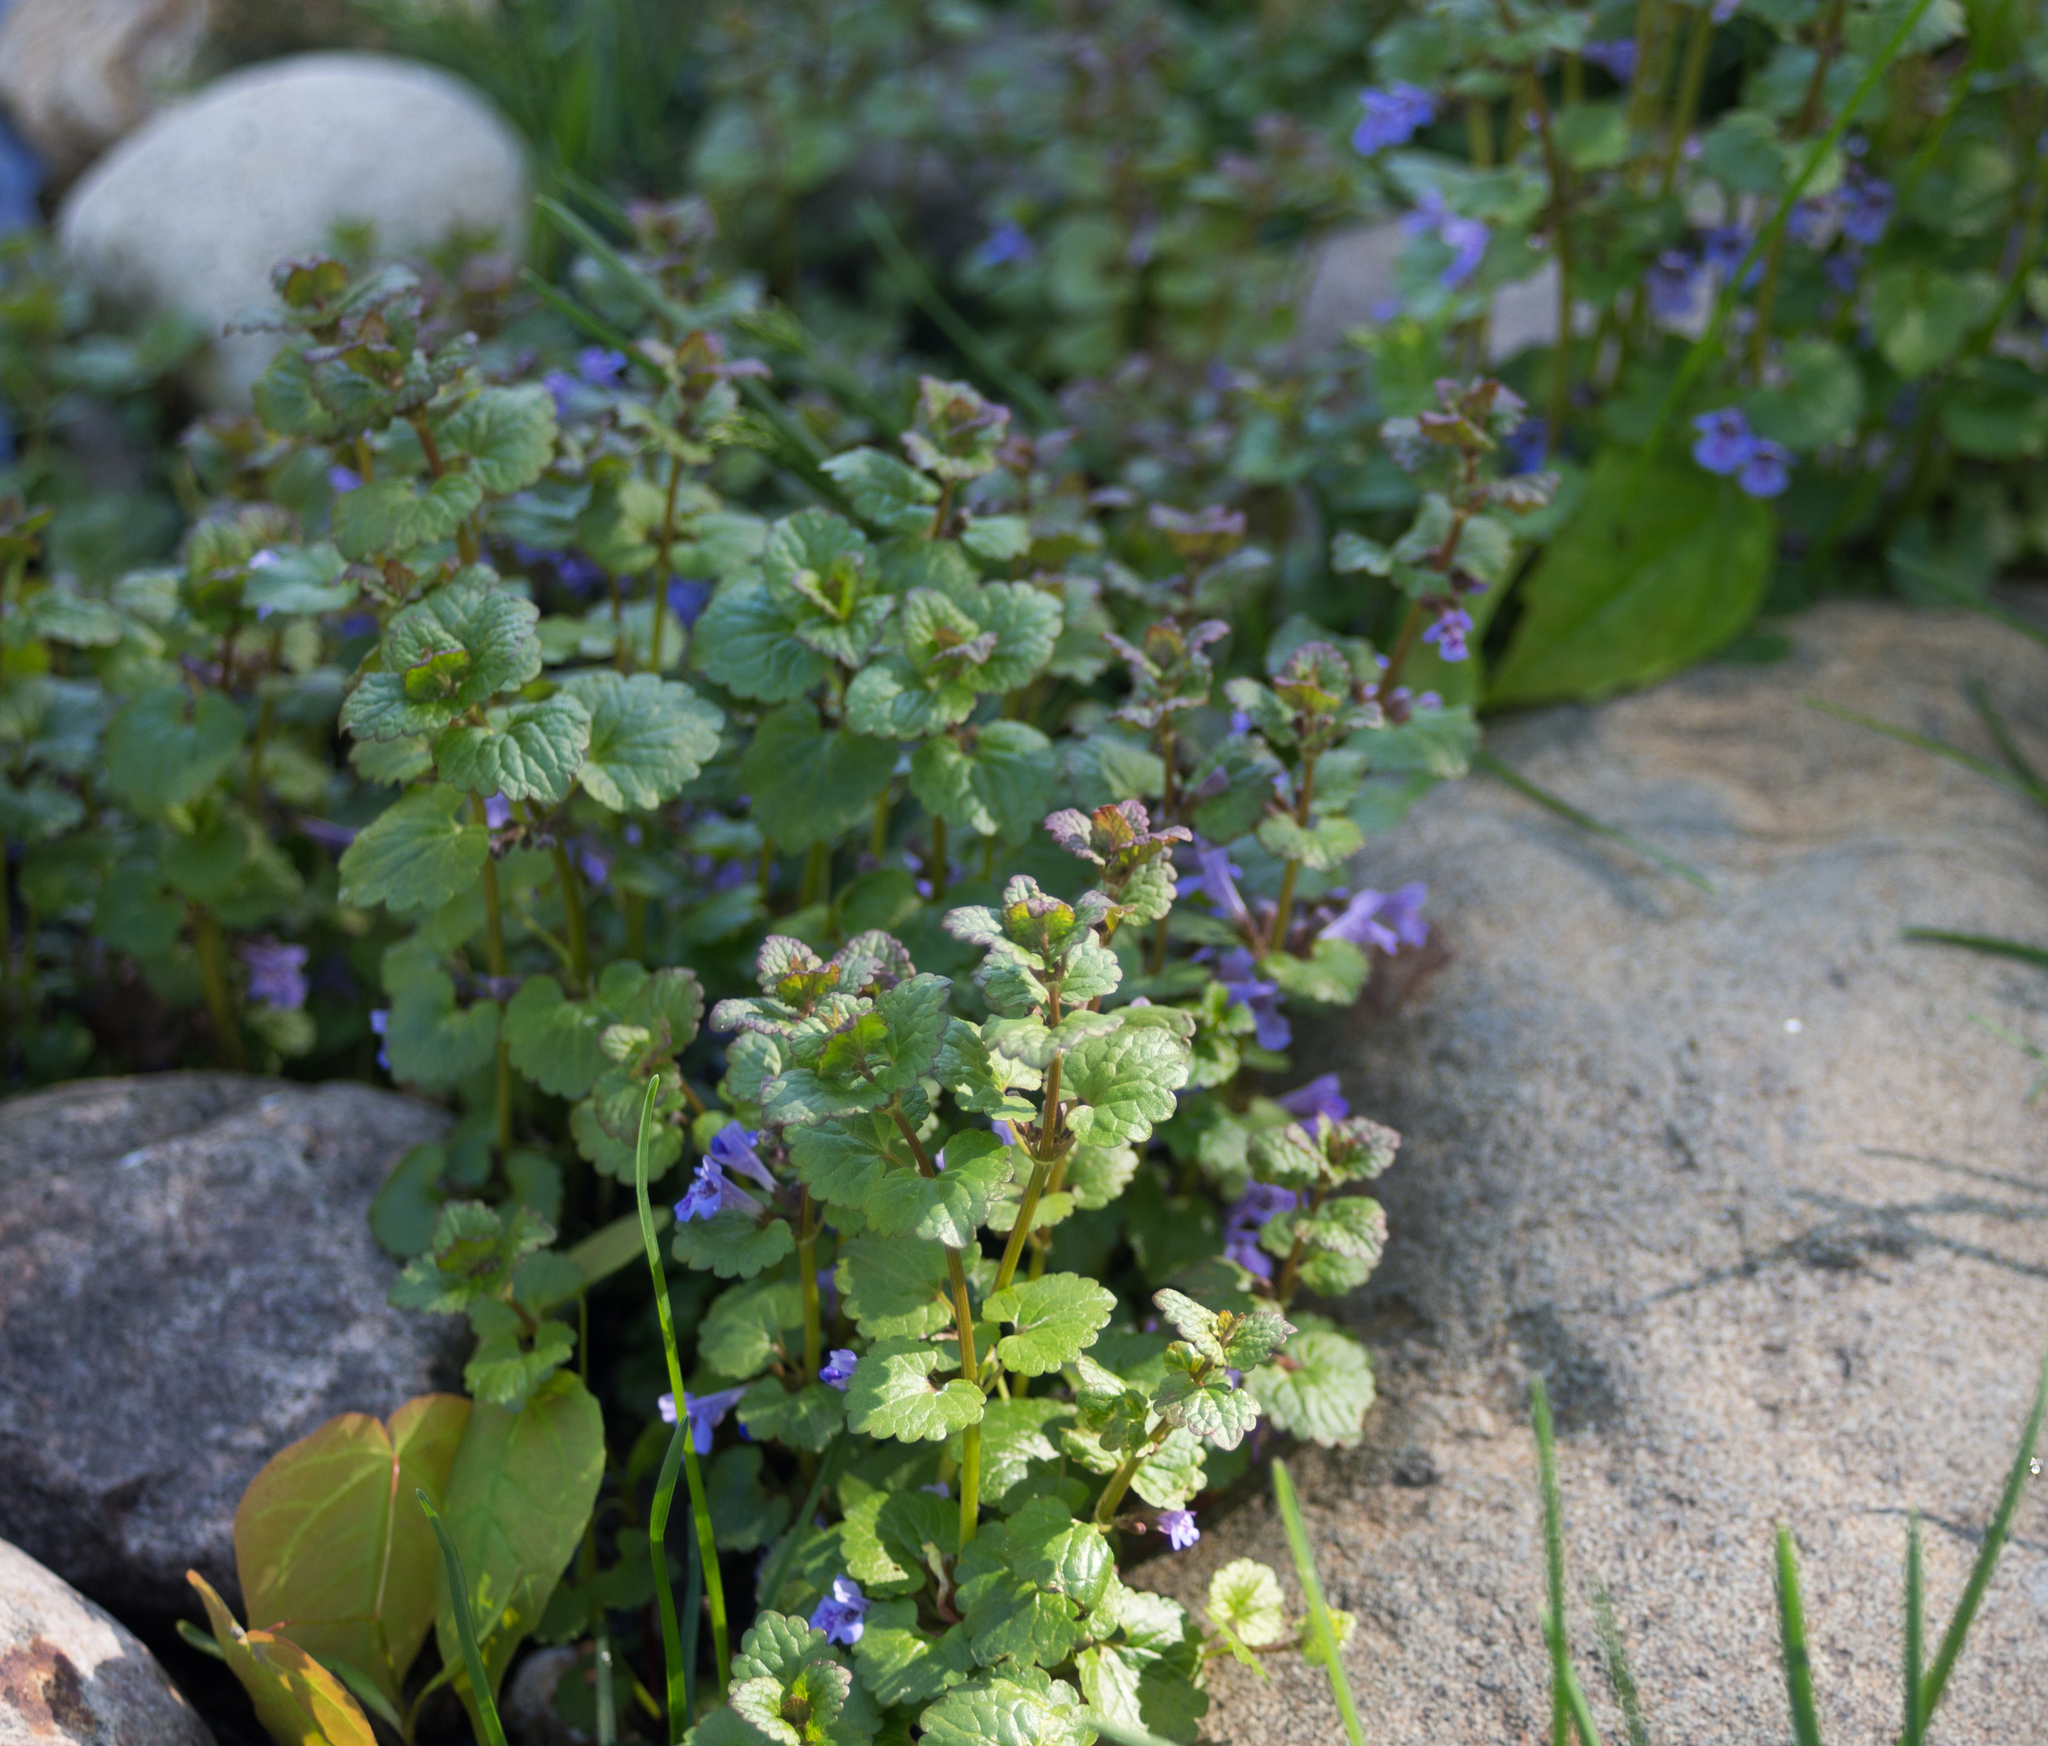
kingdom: Plantae
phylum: Tracheophyta
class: Magnoliopsida
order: Lamiales
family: Lamiaceae
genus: Glechoma
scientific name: Glechoma hederacea
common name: Ground ivy
